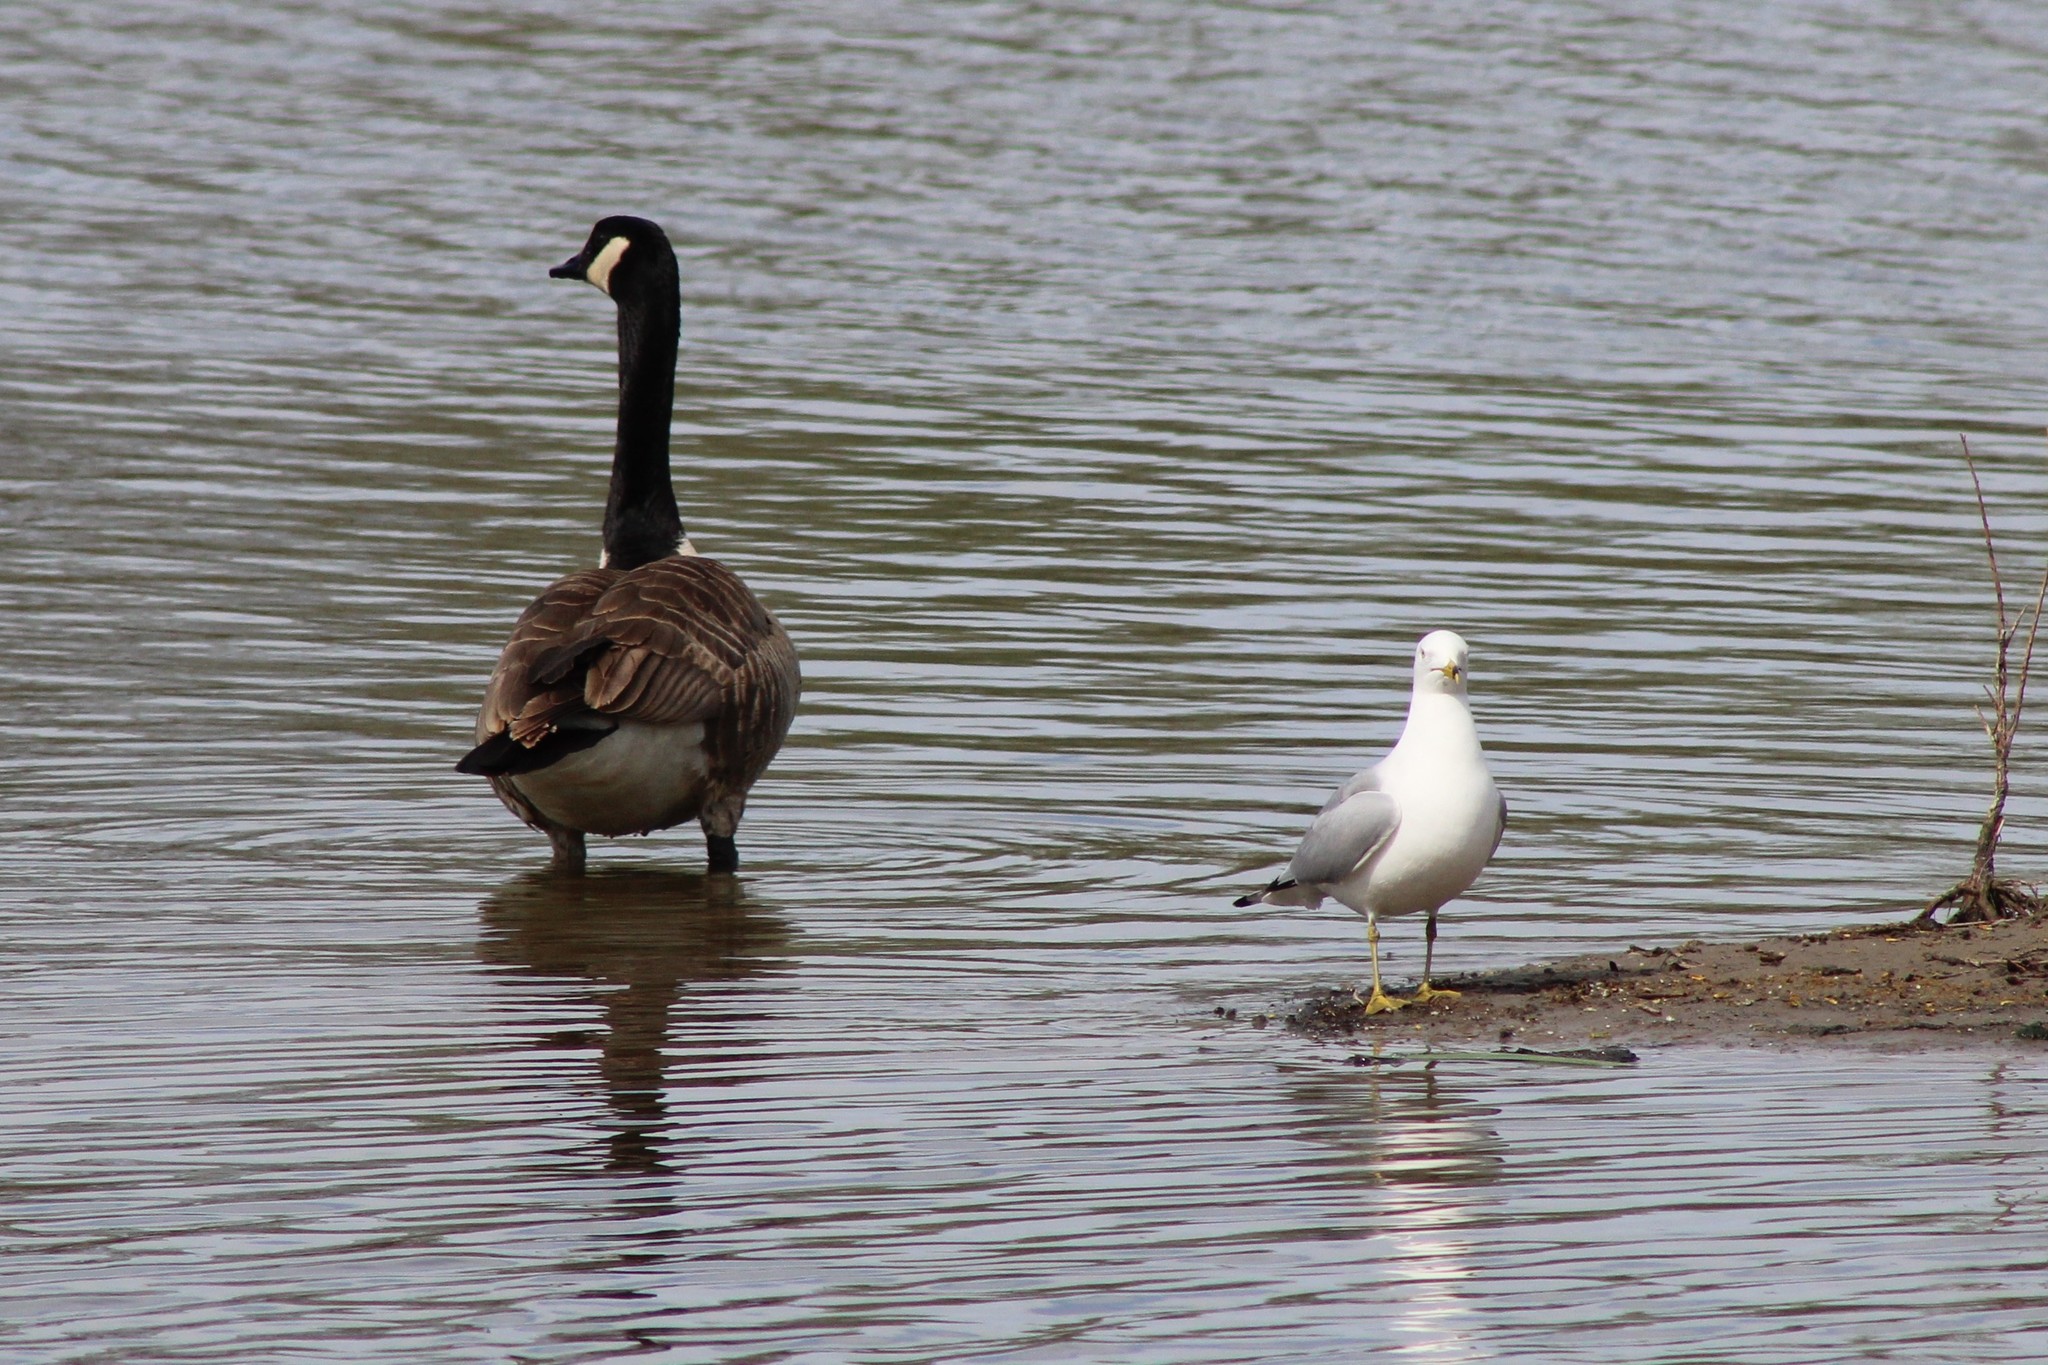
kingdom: Animalia
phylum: Chordata
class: Aves
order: Charadriiformes
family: Laridae
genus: Larus
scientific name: Larus delawarensis
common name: Ring-billed gull
